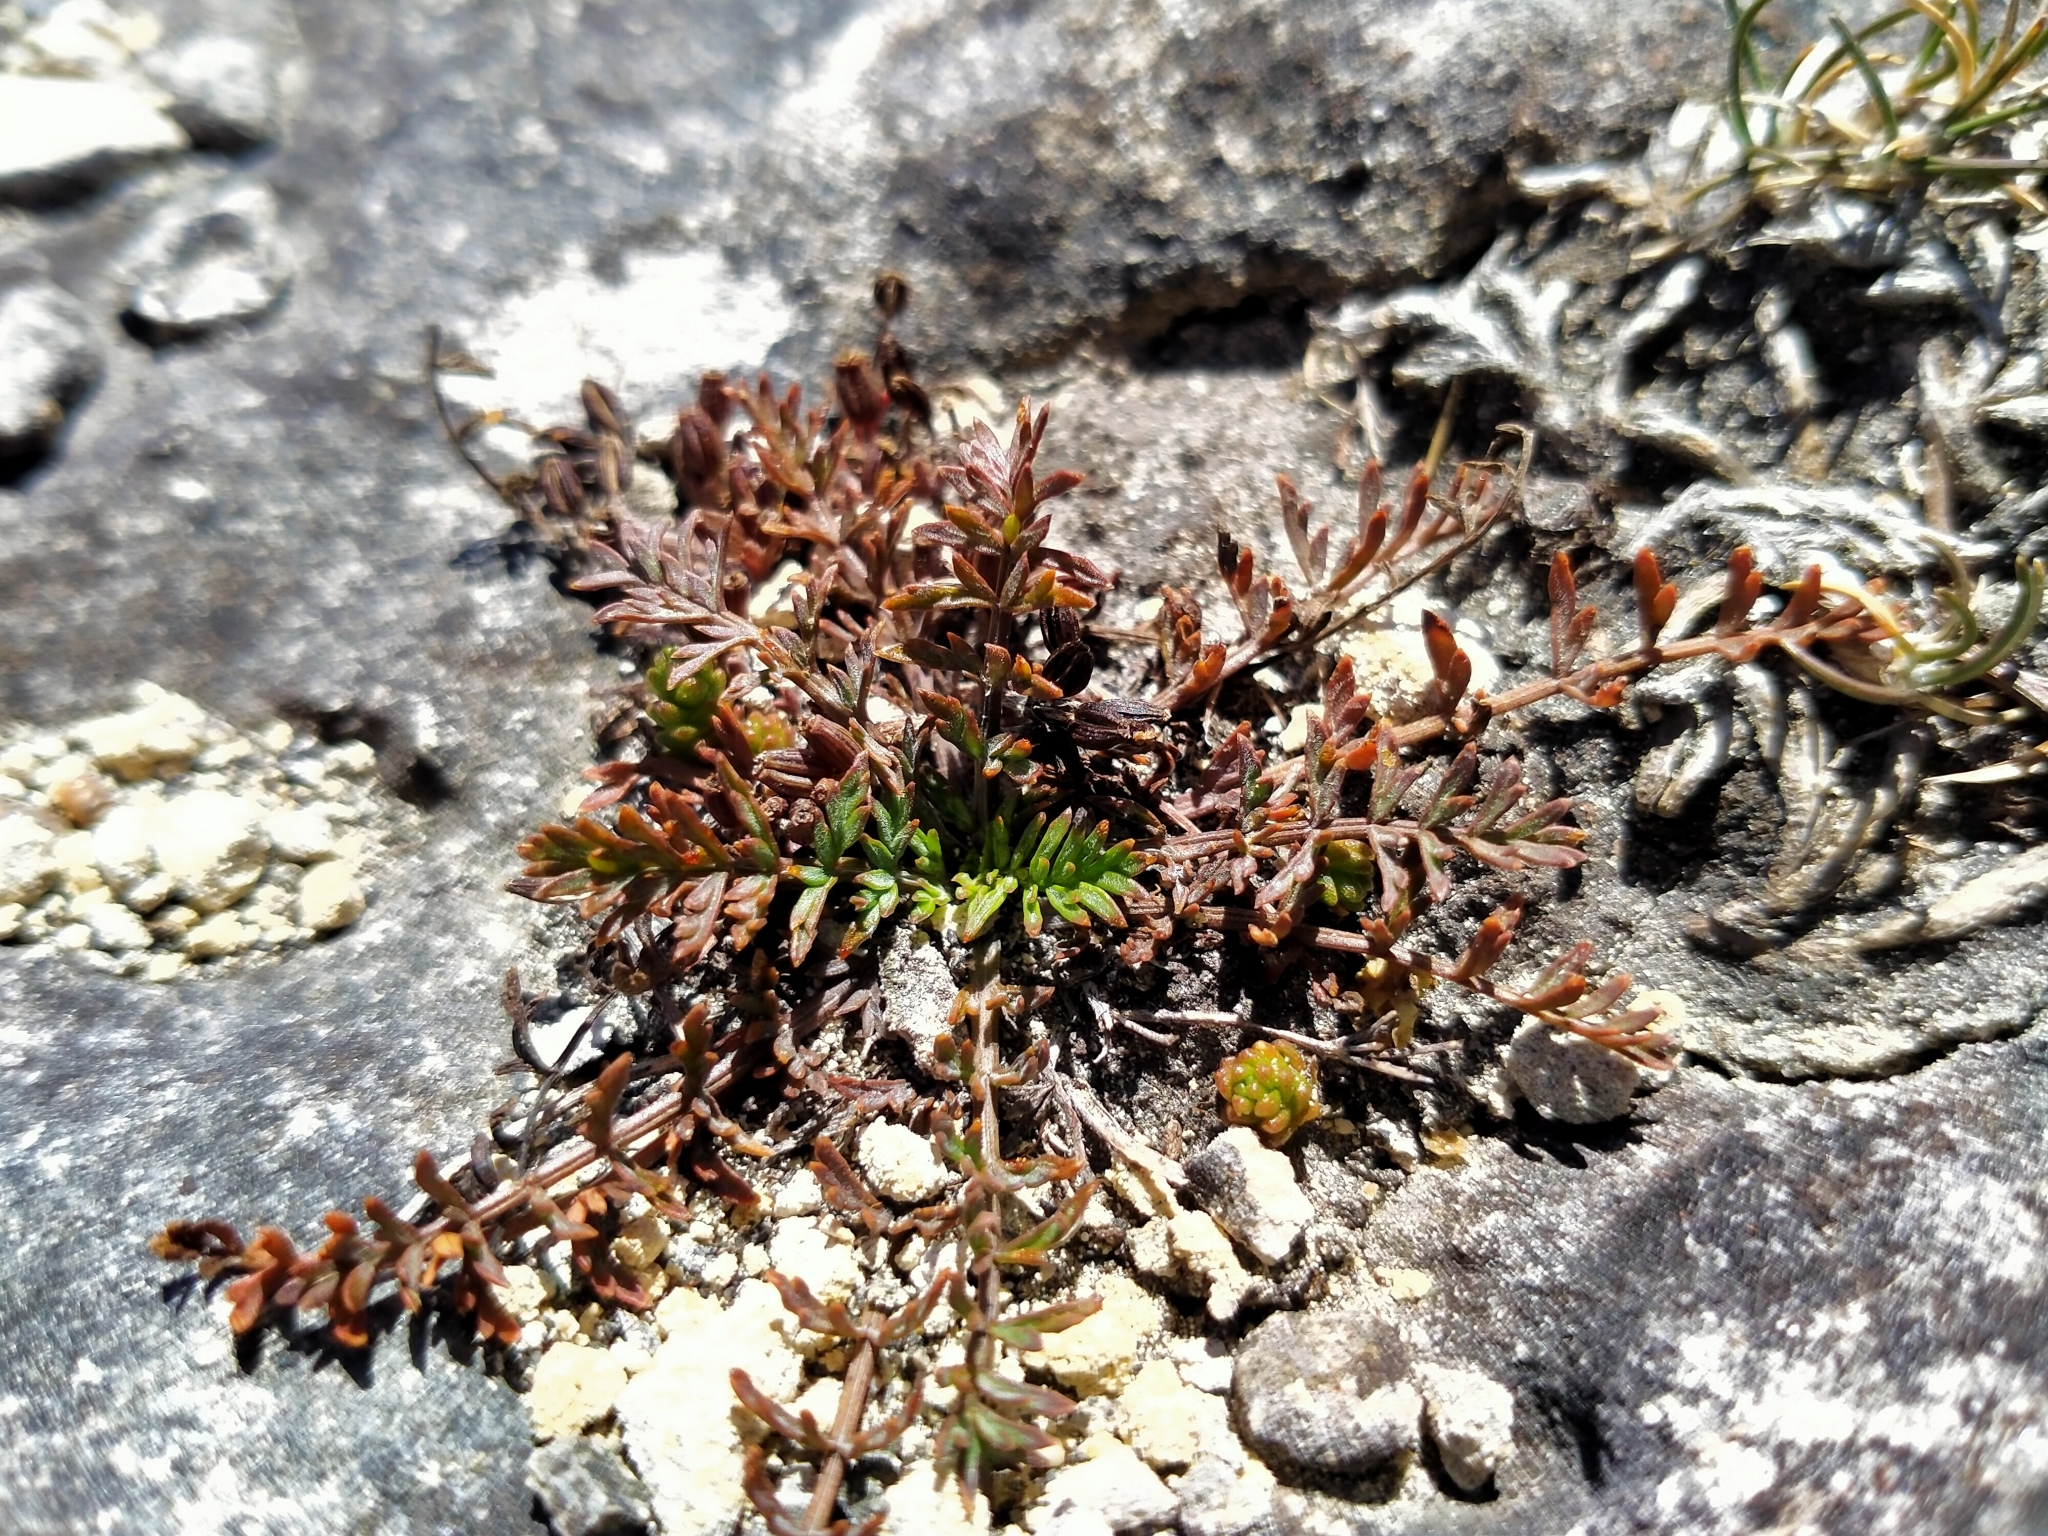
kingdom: Plantae
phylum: Tracheophyta
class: Magnoliopsida
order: Apiales
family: Apiaceae
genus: Chaerophyllum
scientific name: Chaerophyllum novae-zelandiae
